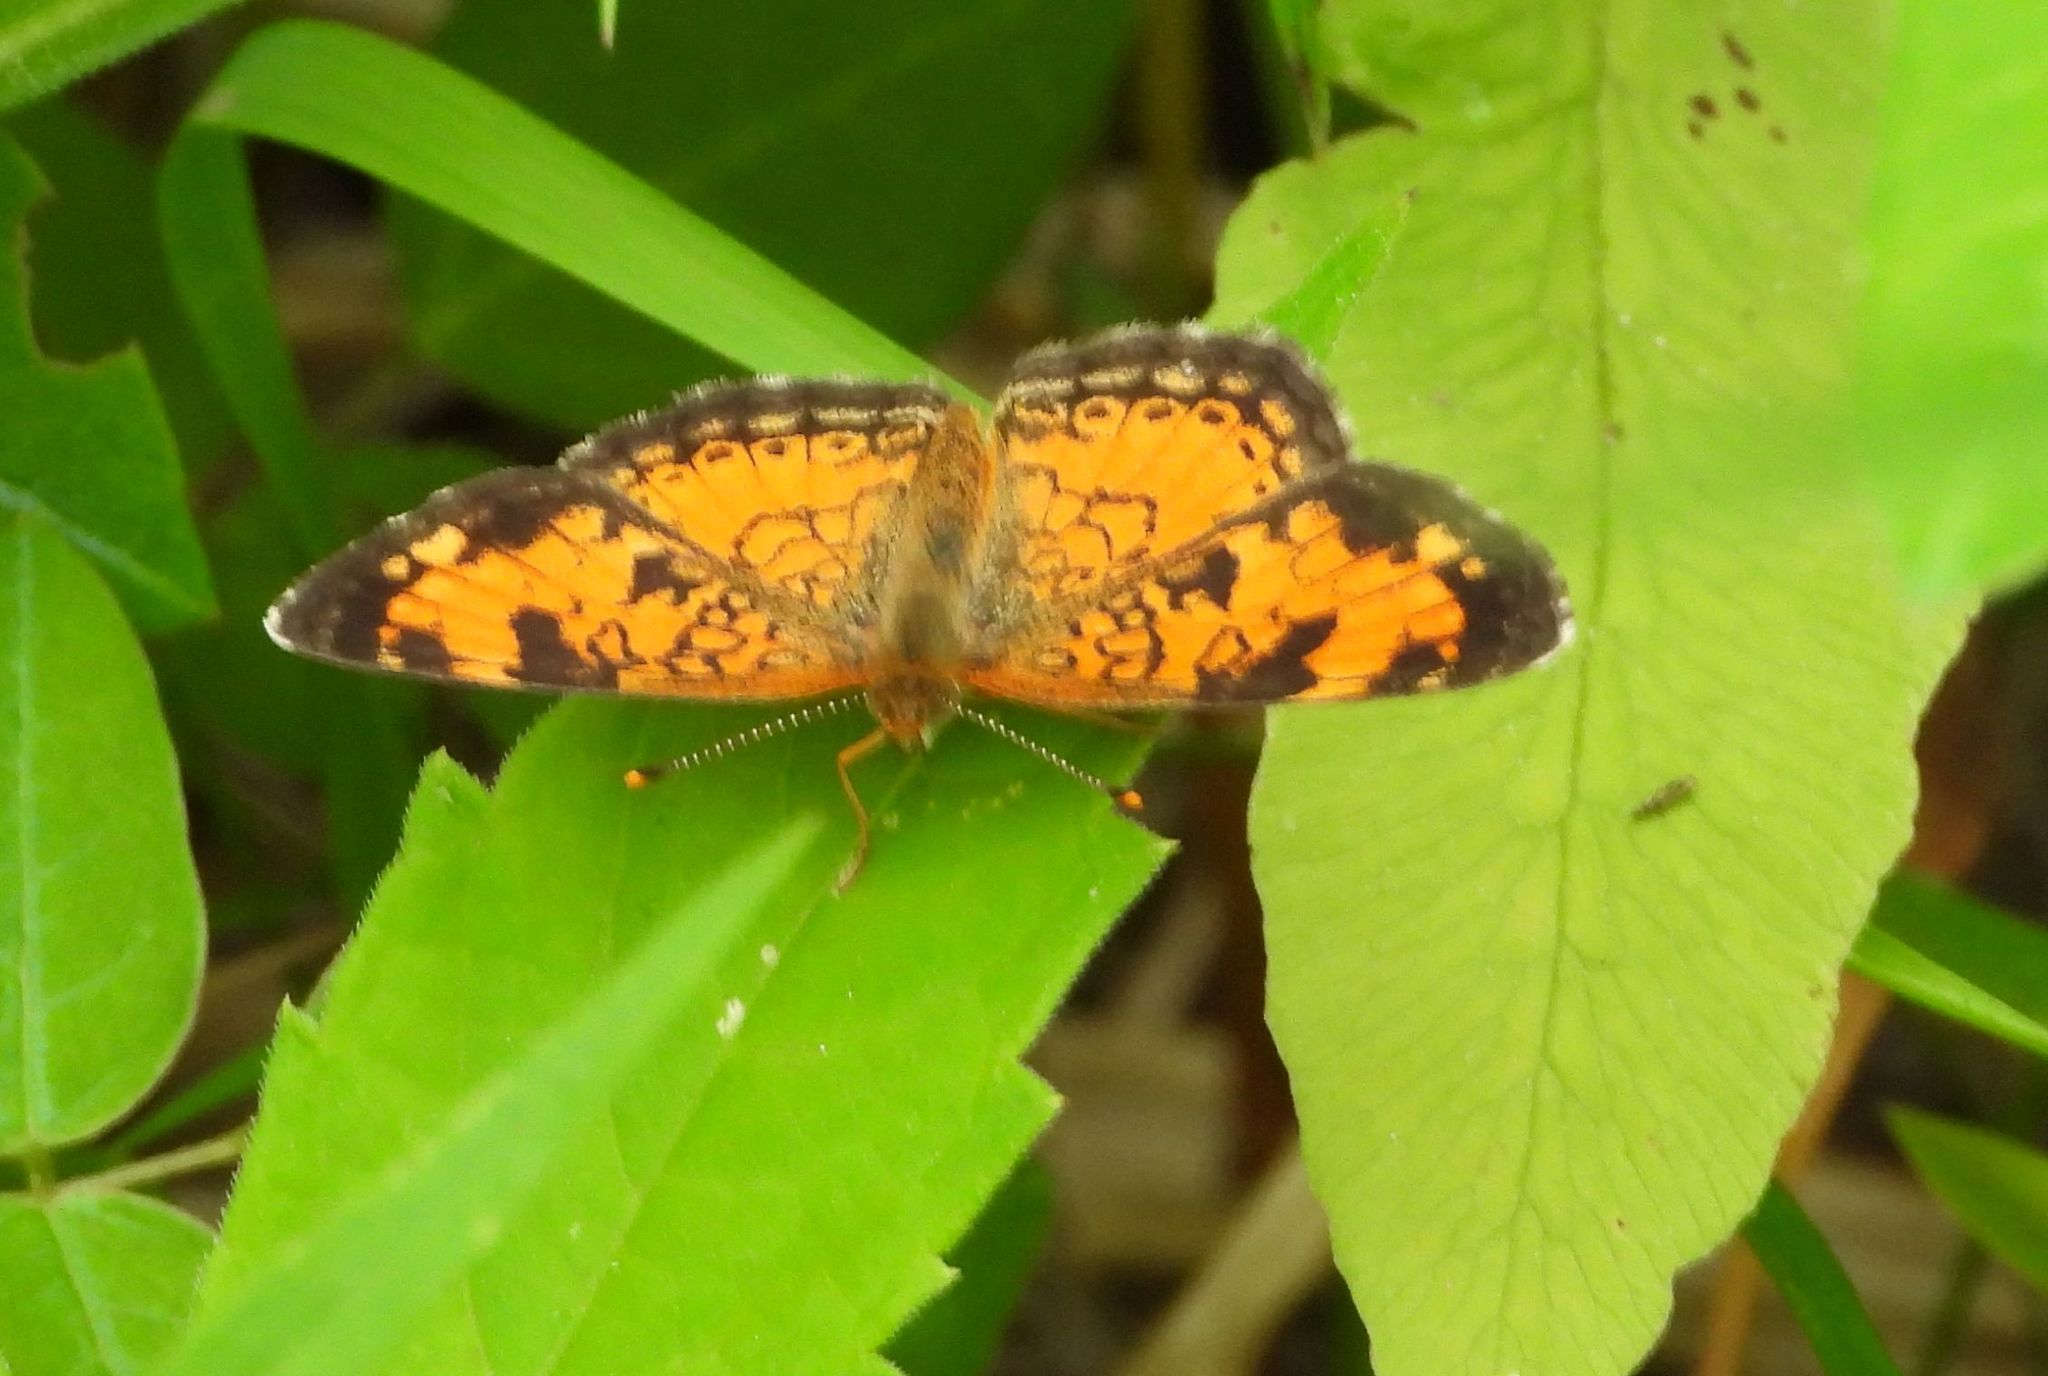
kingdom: Animalia
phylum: Arthropoda
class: Insecta
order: Lepidoptera
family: Nymphalidae
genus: Phyciodes
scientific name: Phyciodes tharos
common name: Pearl crescent
